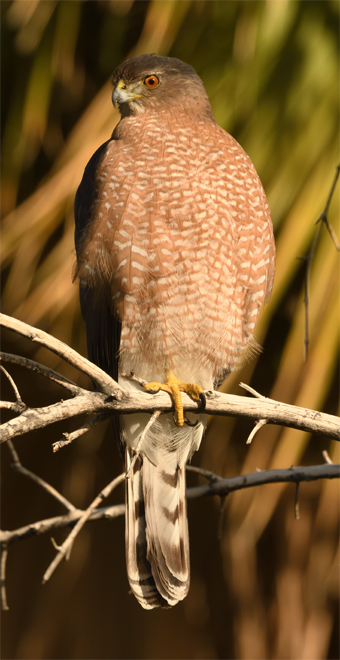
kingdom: Animalia
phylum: Chordata
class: Aves
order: Accipitriformes
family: Accipitridae
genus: Accipiter
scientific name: Accipiter cooperii
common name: Cooper's hawk
